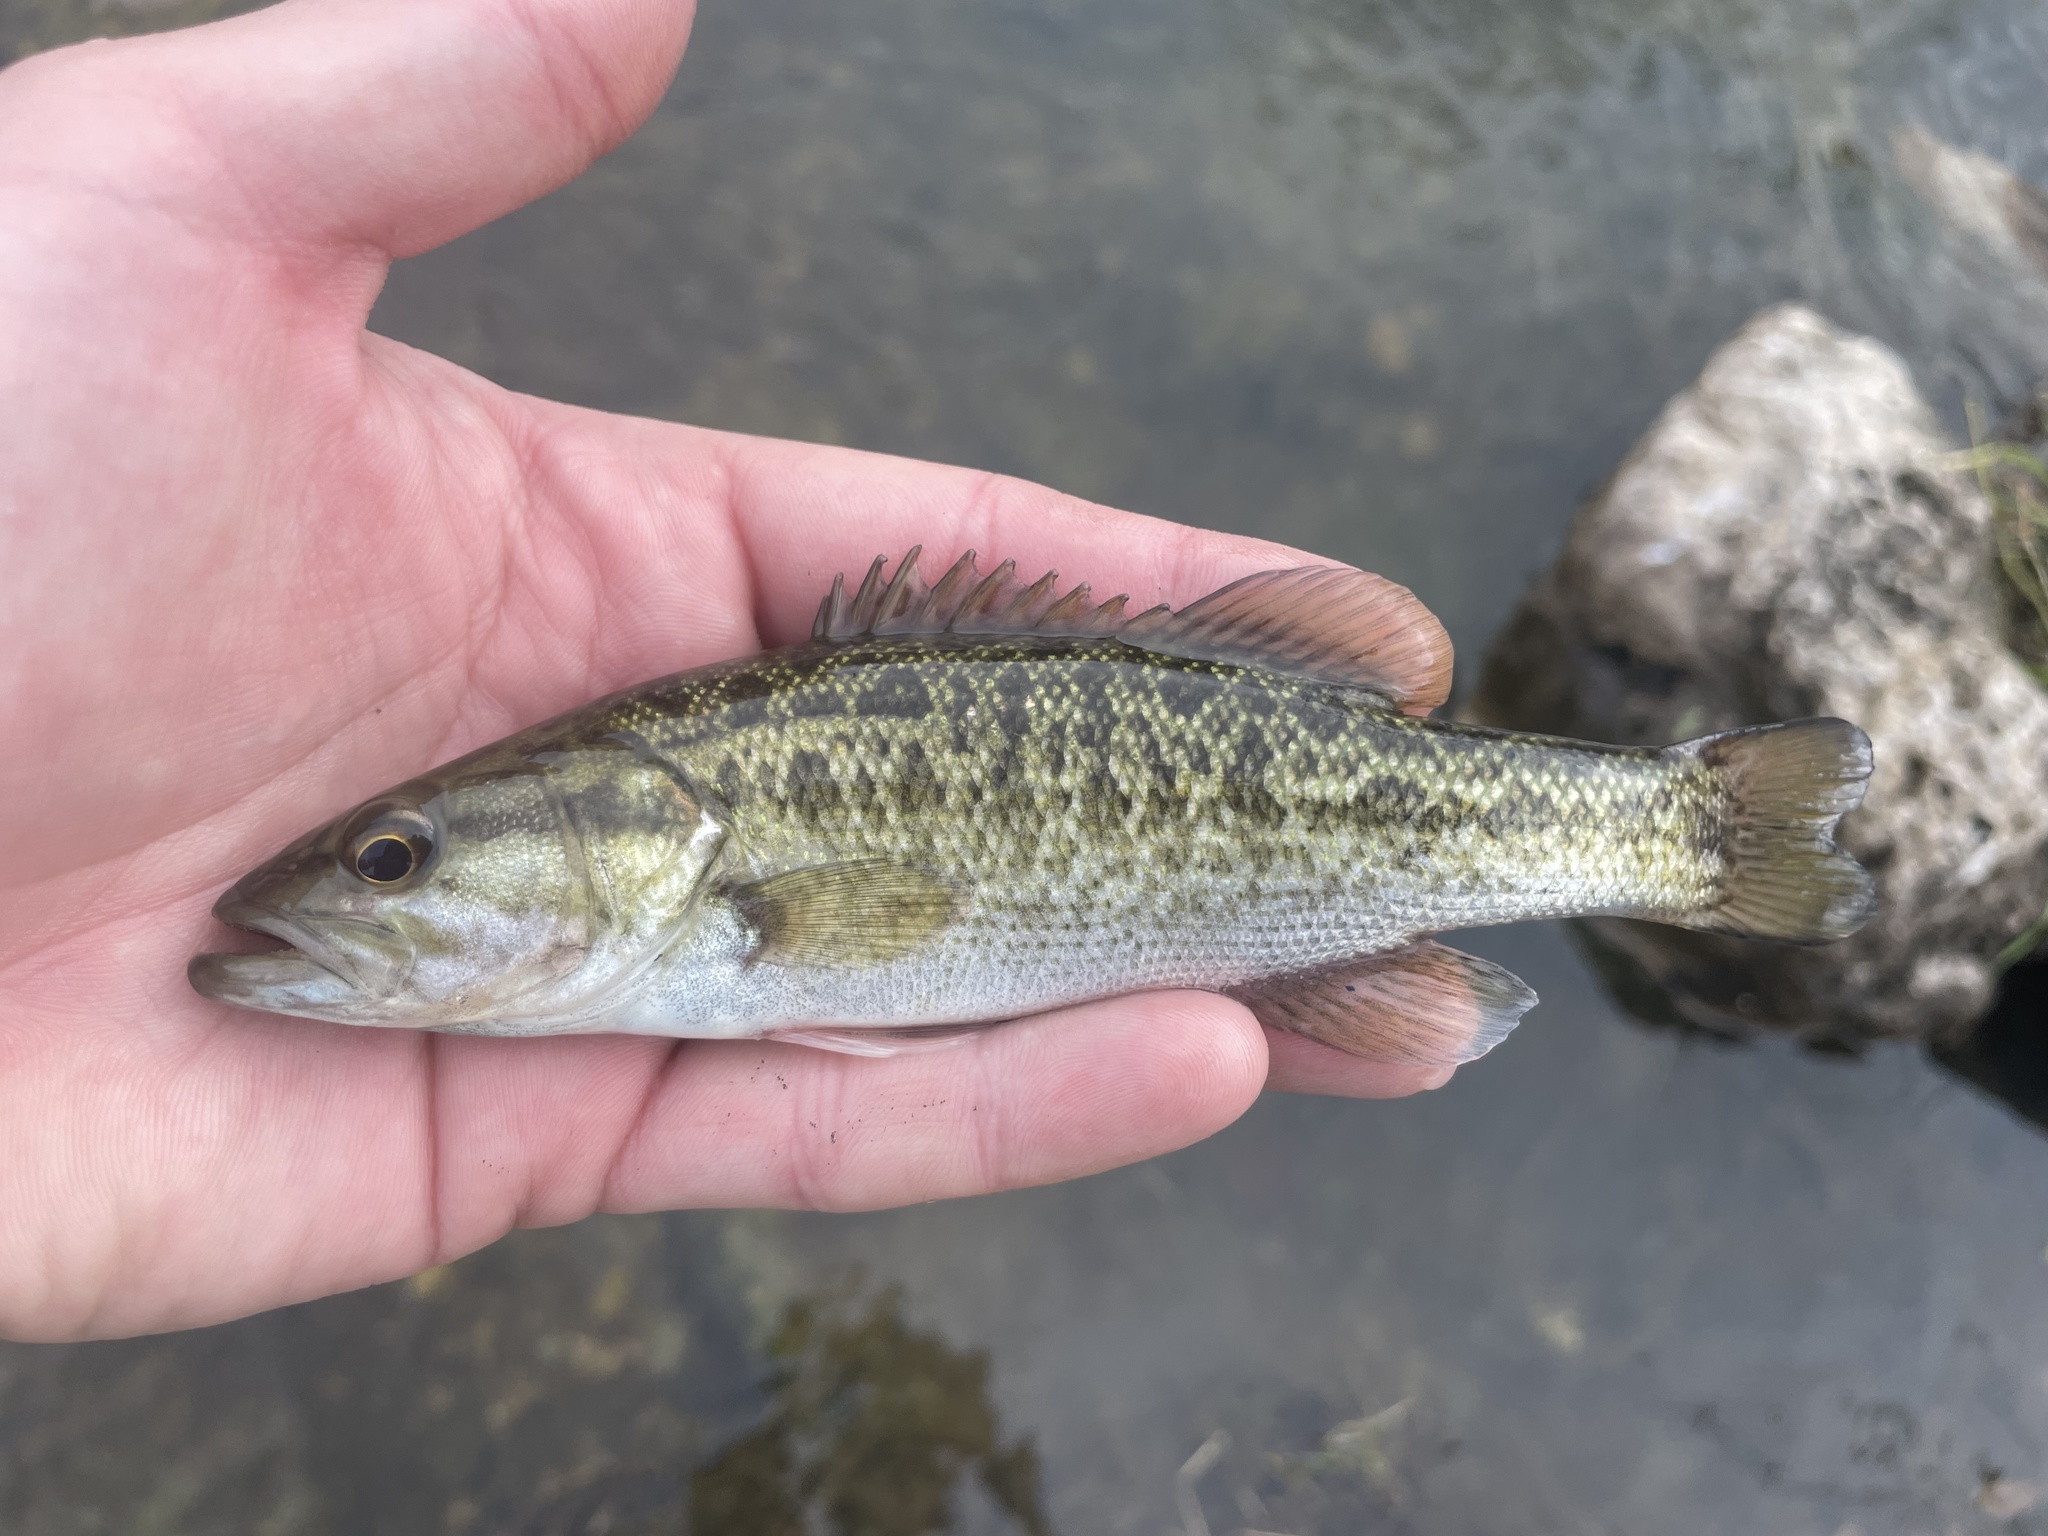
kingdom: Animalia
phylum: Chordata
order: Perciformes
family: Centrarchidae
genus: Micropterus
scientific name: Micropterus treculii
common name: Guadalupe bass
